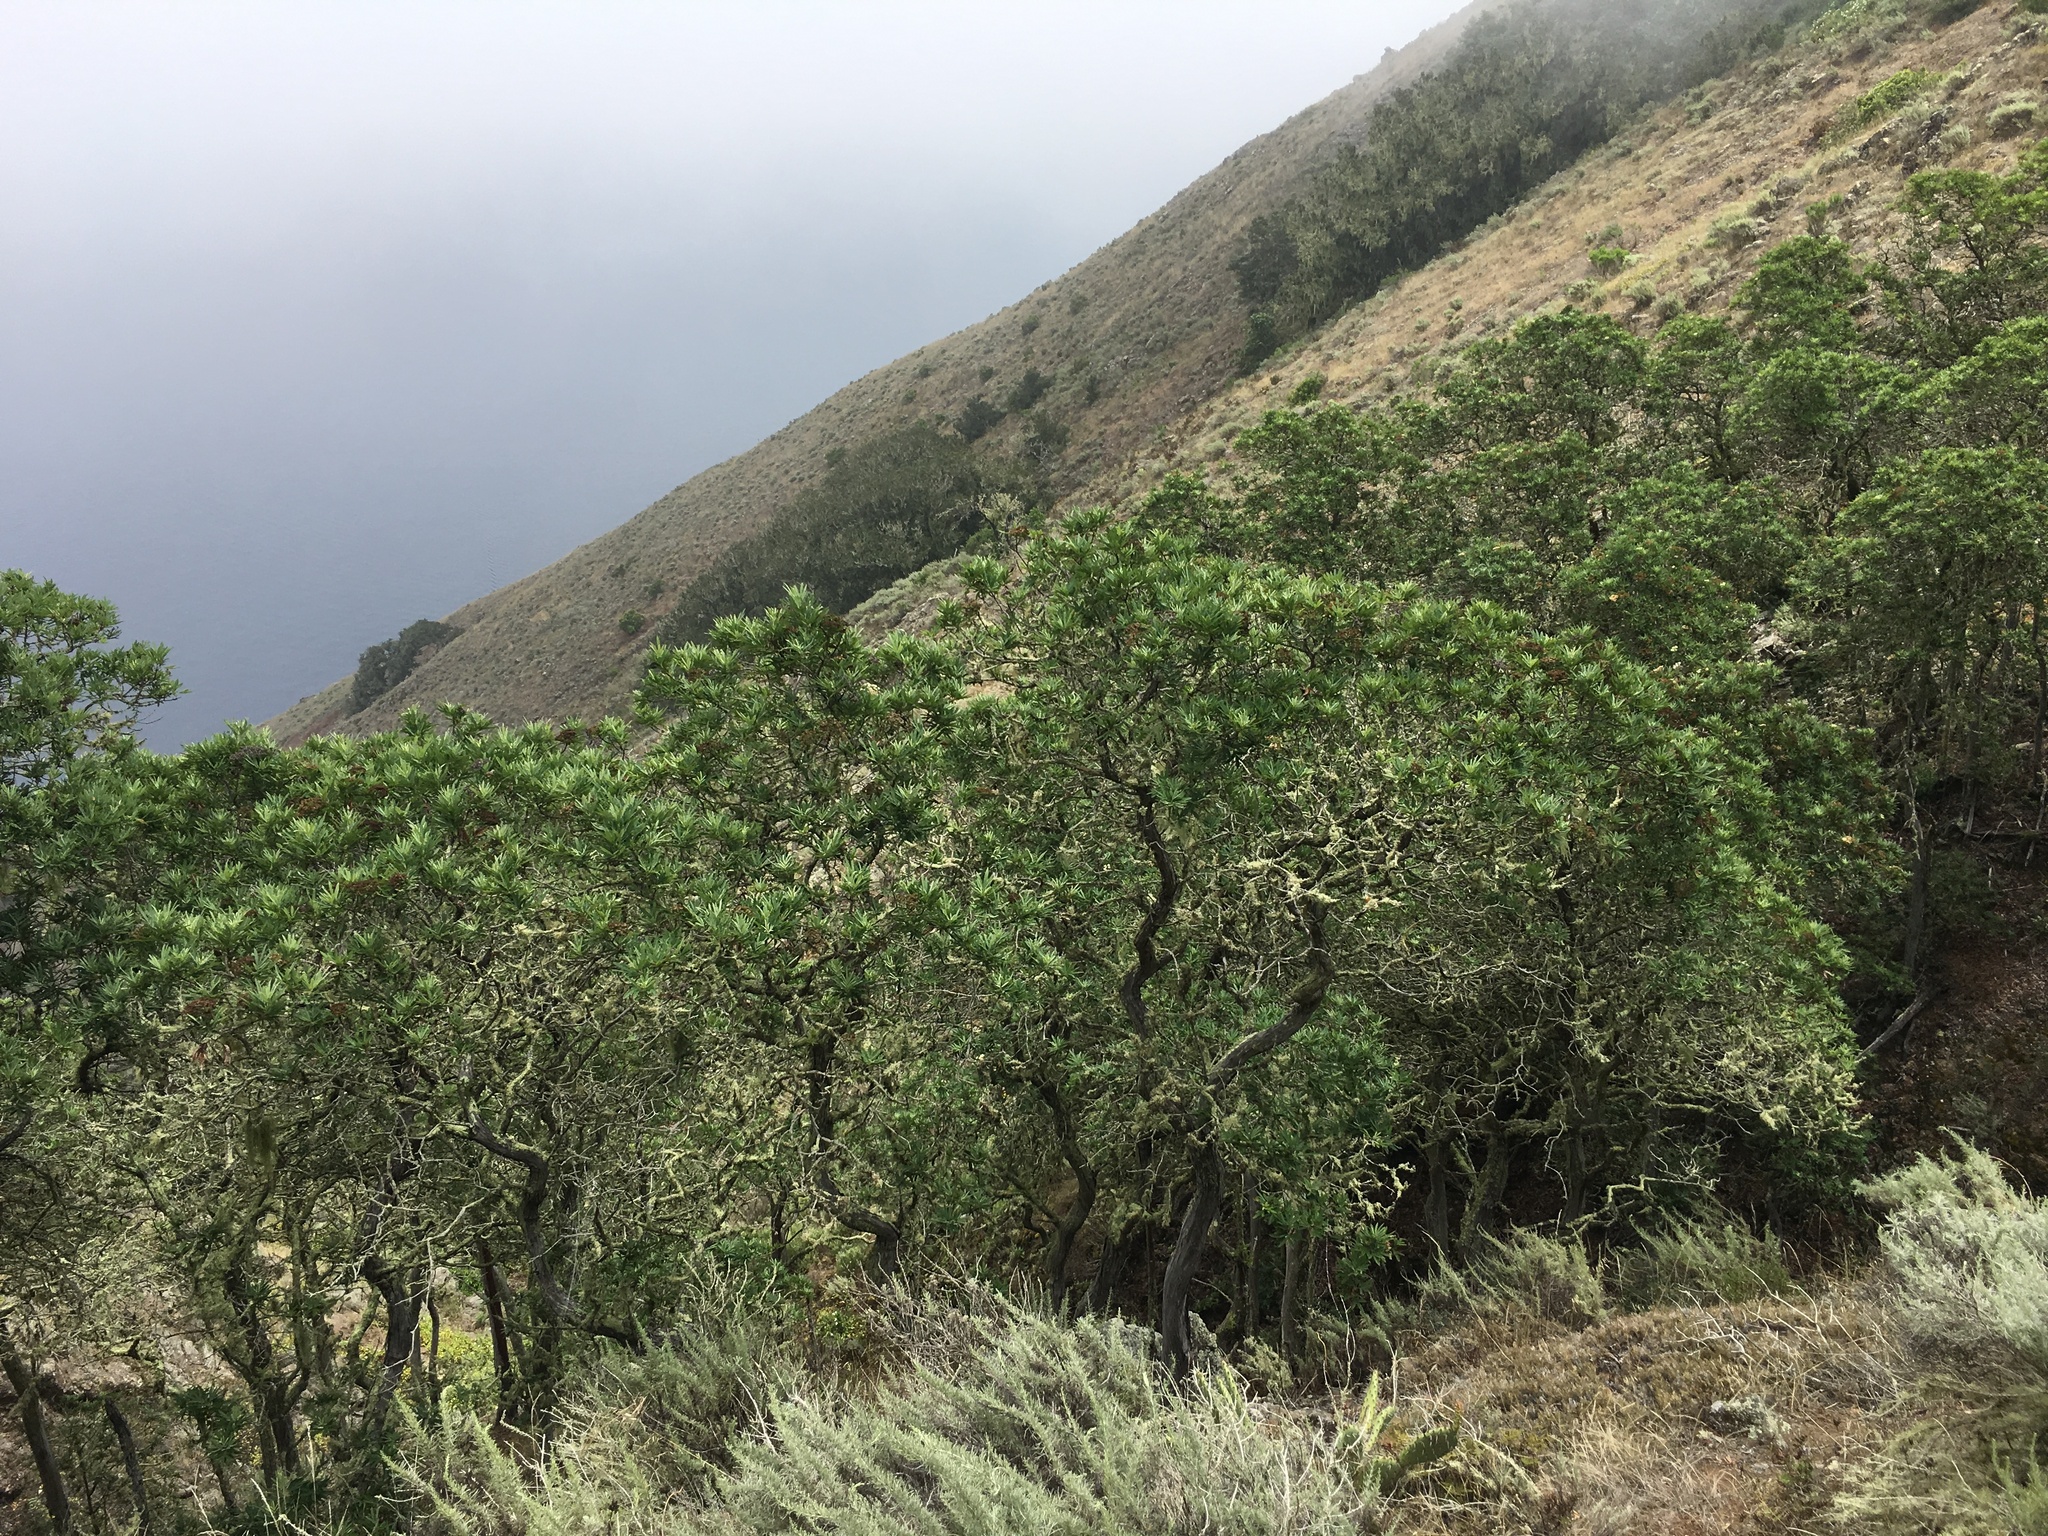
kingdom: Plantae
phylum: Tracheophyta
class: Magnoliopsida
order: Rosales
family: Rosaceae
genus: Lyonothamnus
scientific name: Lyonothamnus floribundus
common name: Catalina ironwood
